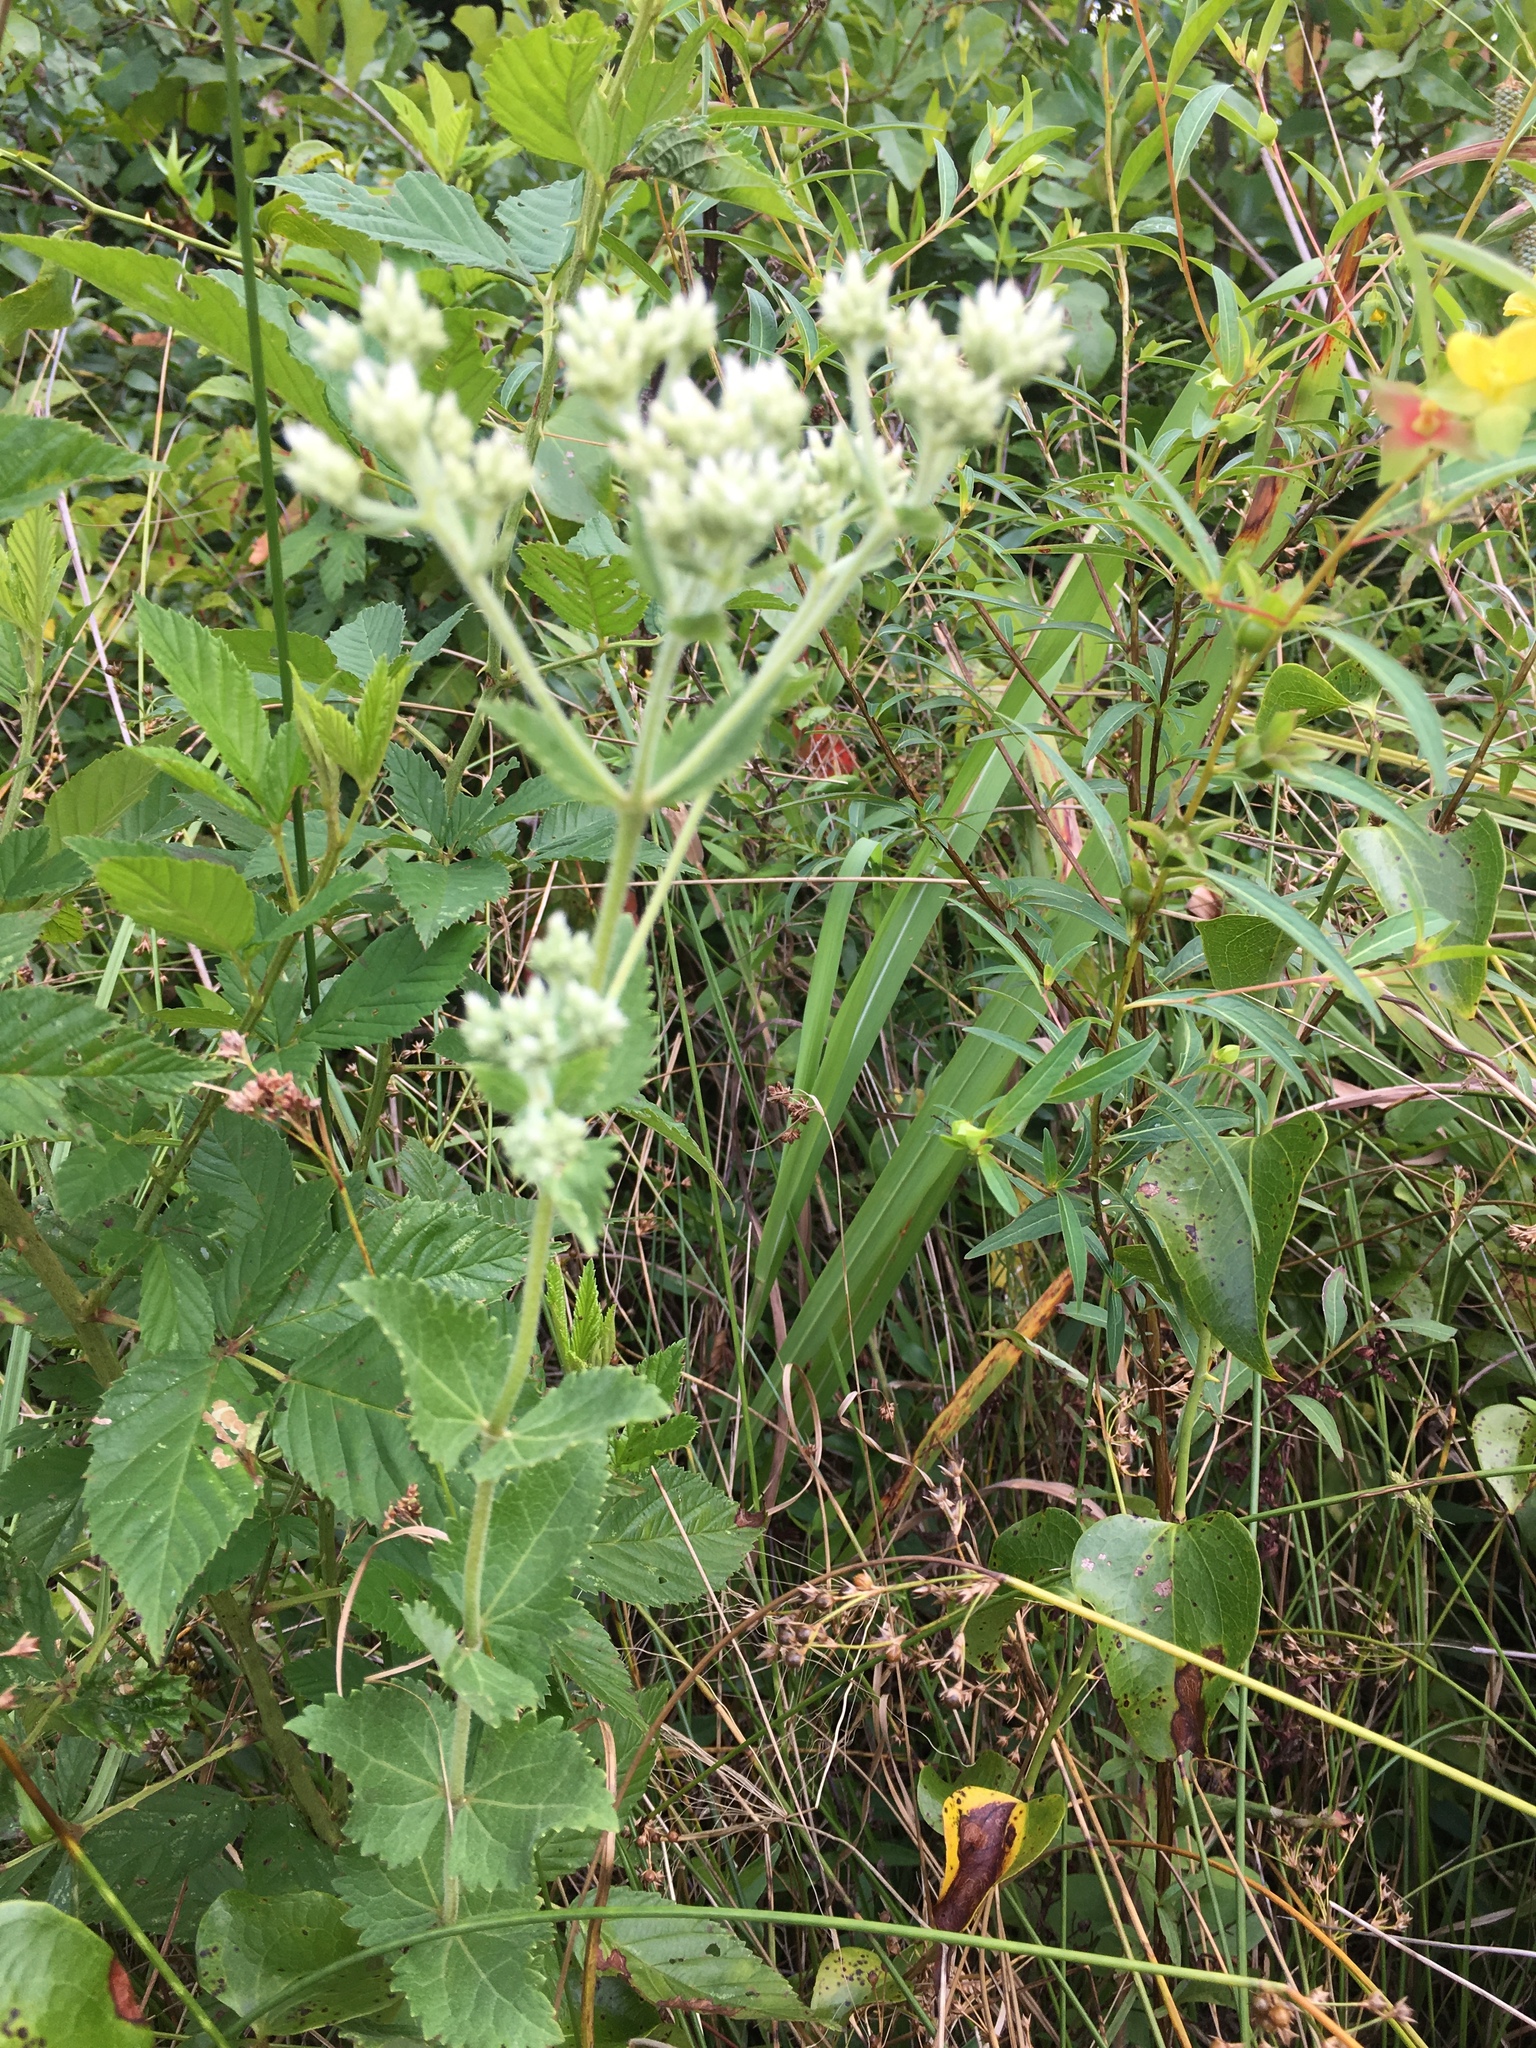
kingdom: Plantae
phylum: Tracheophyta
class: Magnoliopsida
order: Asterales
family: Asteraceae
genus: Eupatorium
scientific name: Eupatorium rotundifolium
